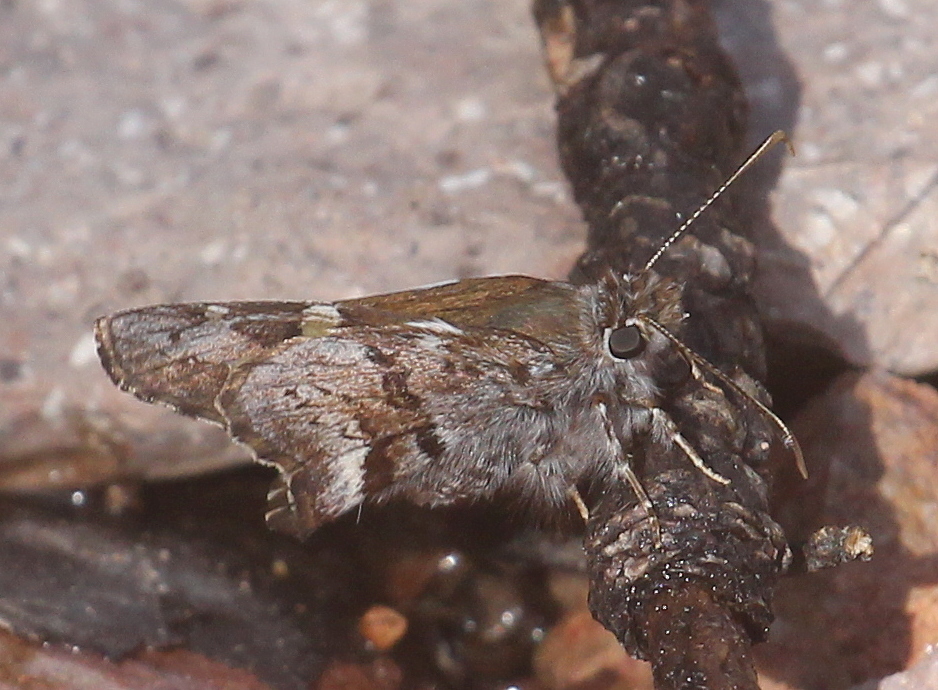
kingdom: Animalia
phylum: Arthropoda
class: Insecta
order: Lepidoptera
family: Hesperiidae
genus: Zestusa
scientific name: Zestusa dorus
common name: Short-tailed skipper
